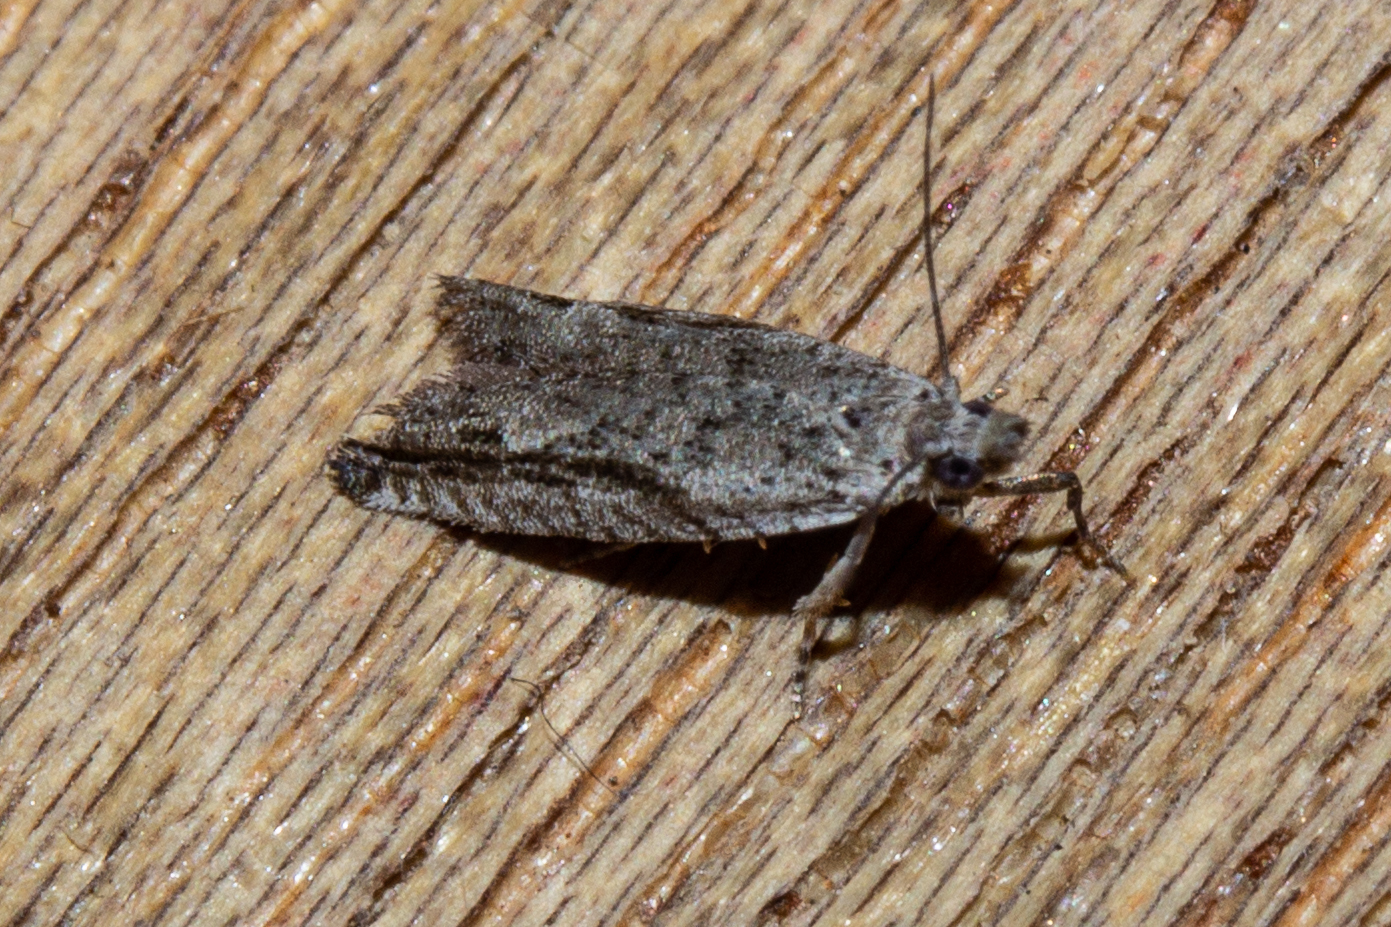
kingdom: Animalia
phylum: Arthropoda
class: Insecta
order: Lepidoptera
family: Tortricidae
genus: Holocola
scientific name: Holocola zopherana
